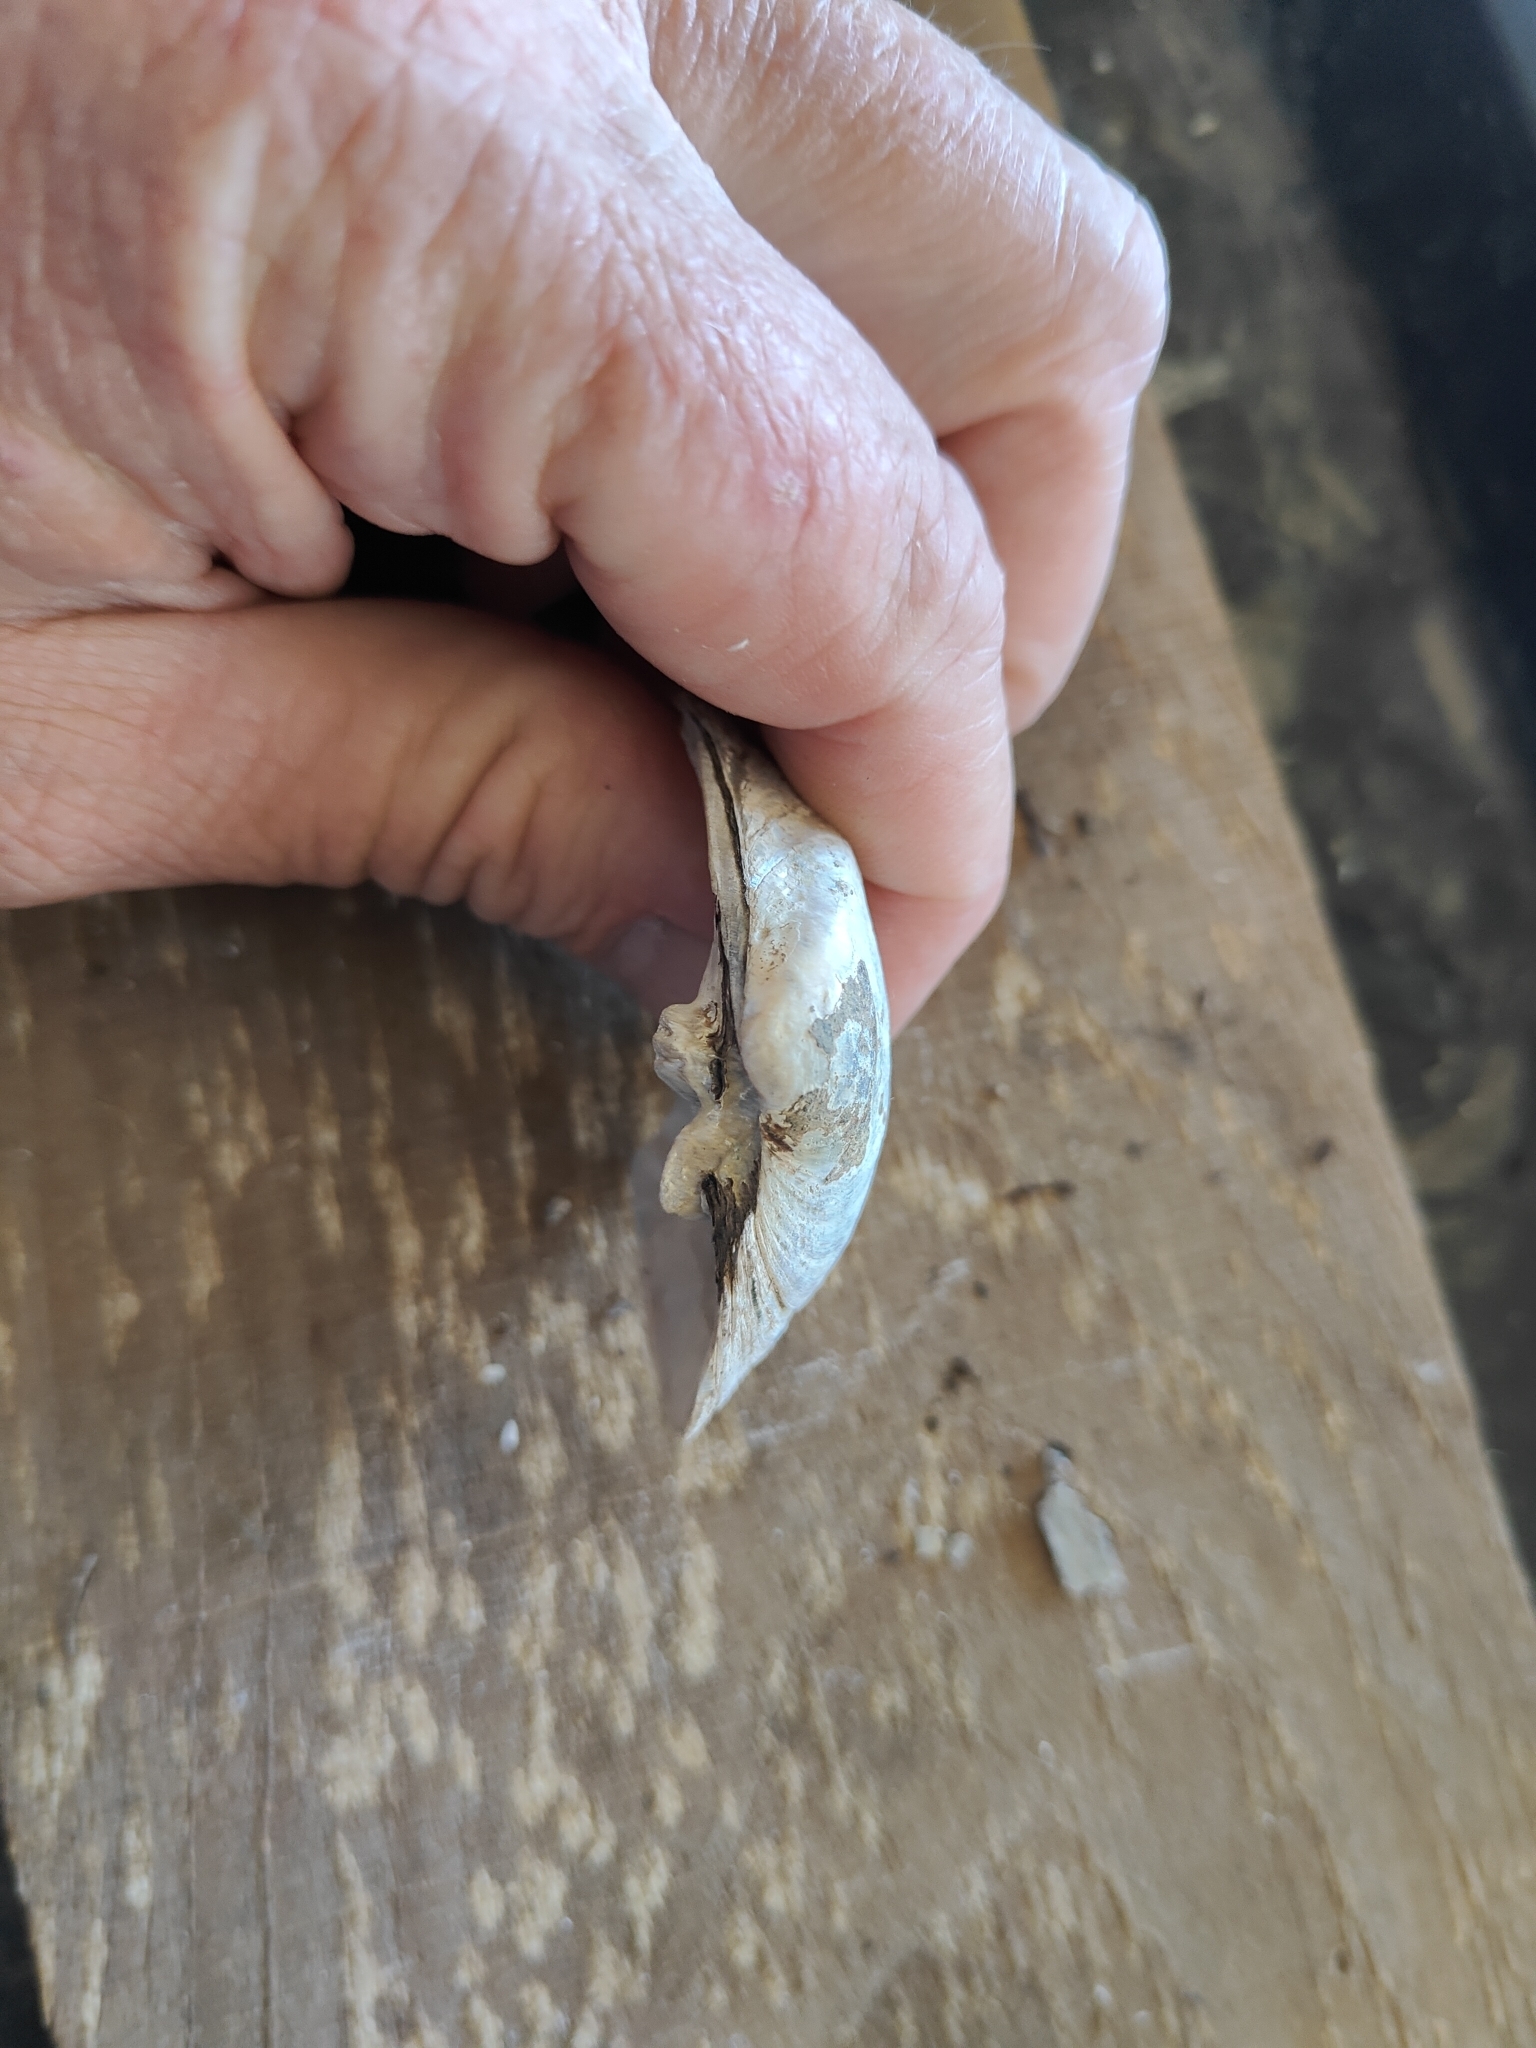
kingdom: Animalia
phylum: Mollusca
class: Bivalvia
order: Unionida
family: Unionidae
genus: Fusconaia
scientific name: Fusconaia flava
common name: Wabash pigtoe
